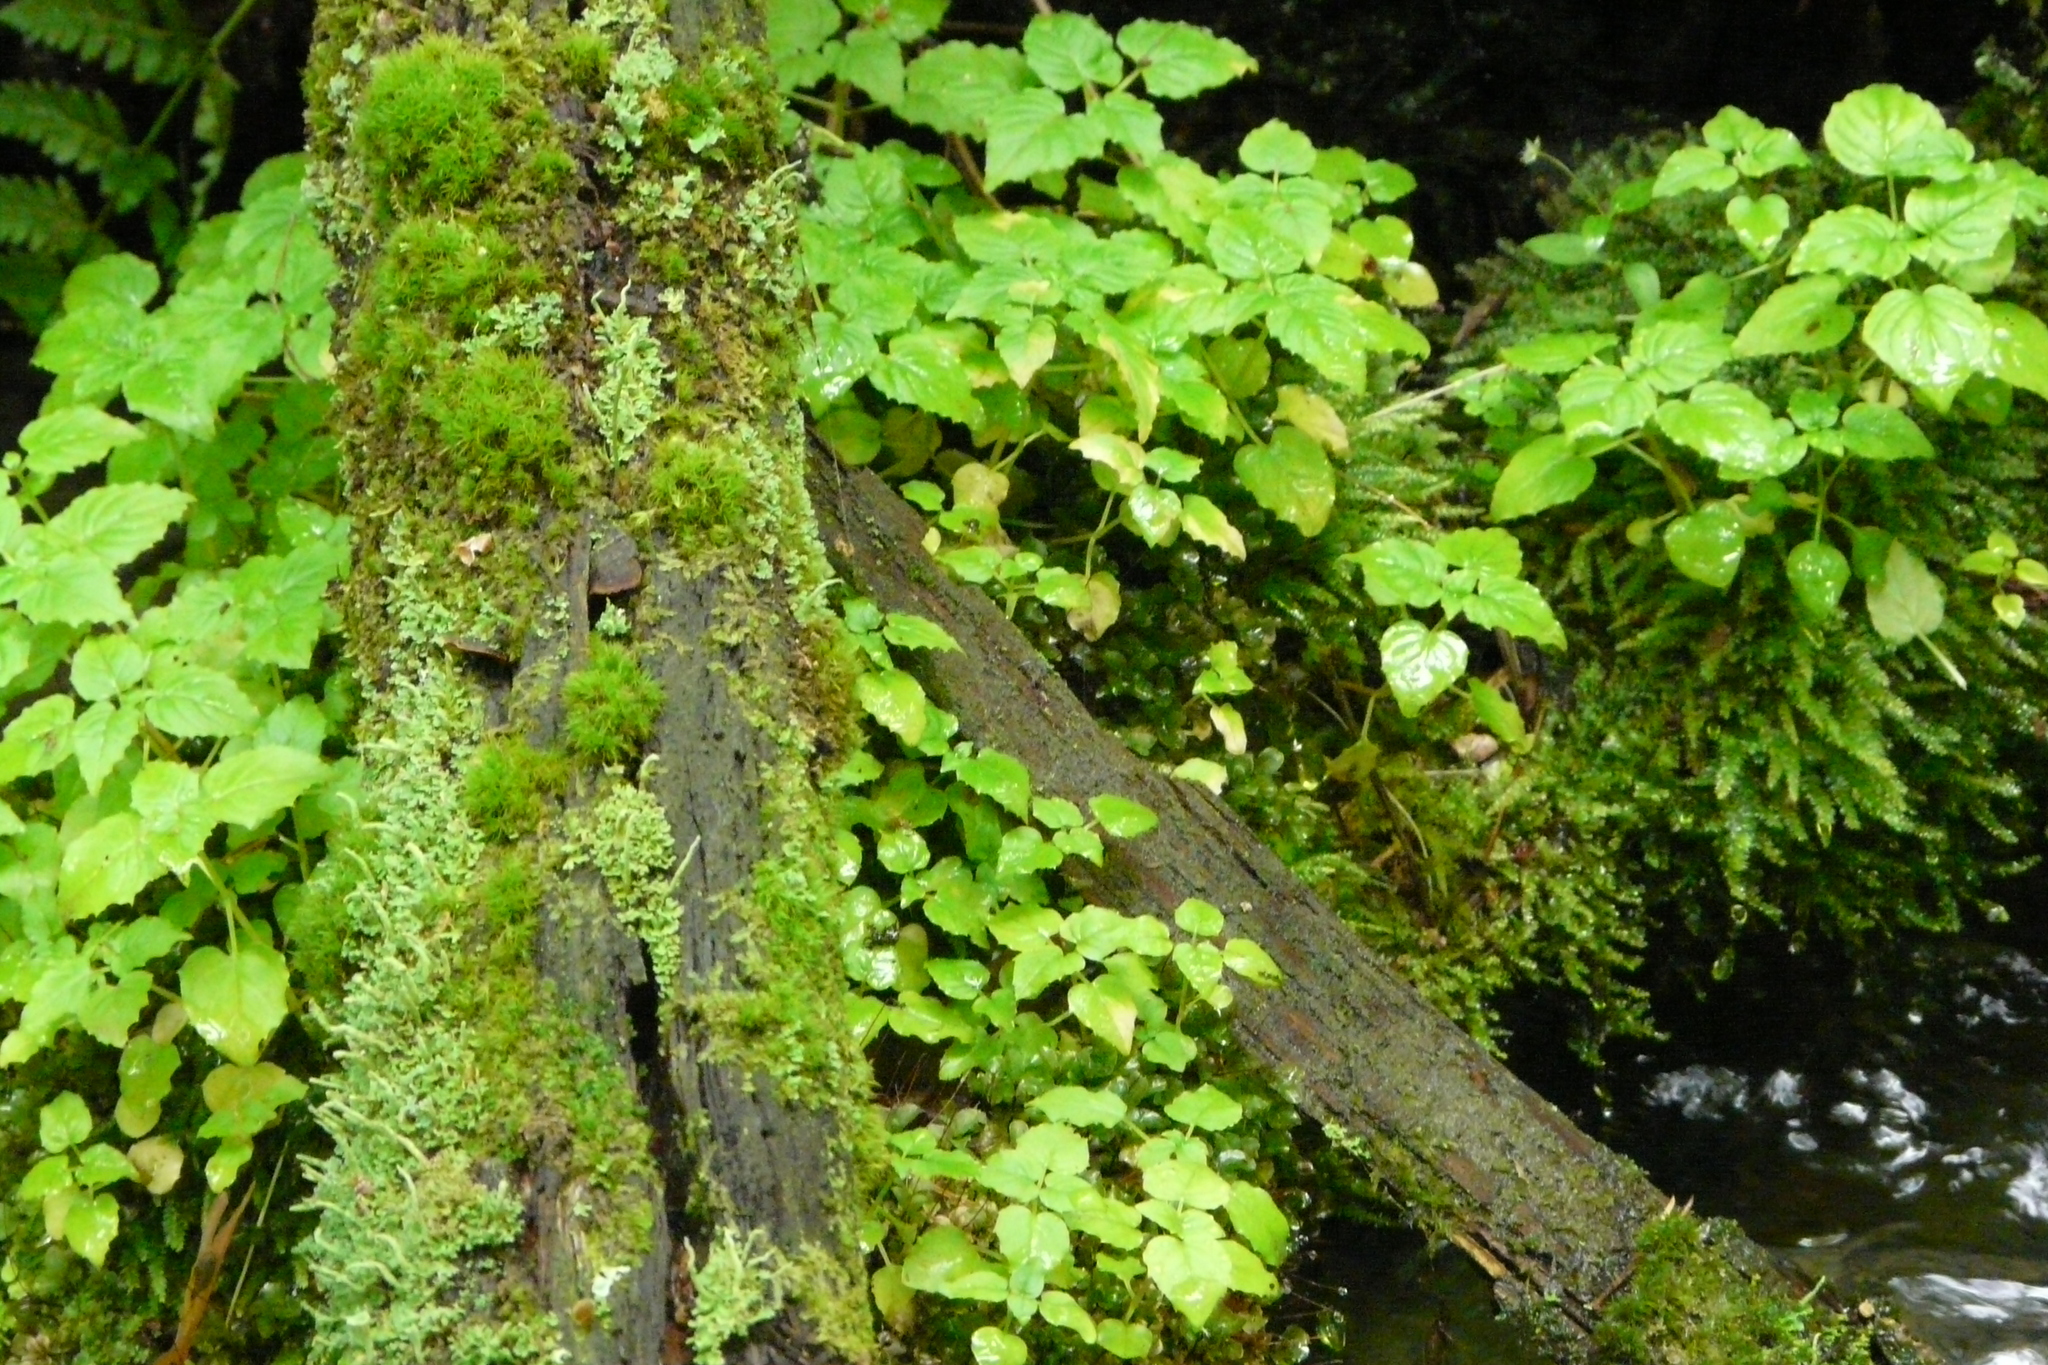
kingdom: Plantae
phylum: Tracheophyta
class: Magnoliopsida
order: Myrtales
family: Onagraceae
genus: Circaea
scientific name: Circaea alpina
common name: Alpine enchanter's-nightshade
